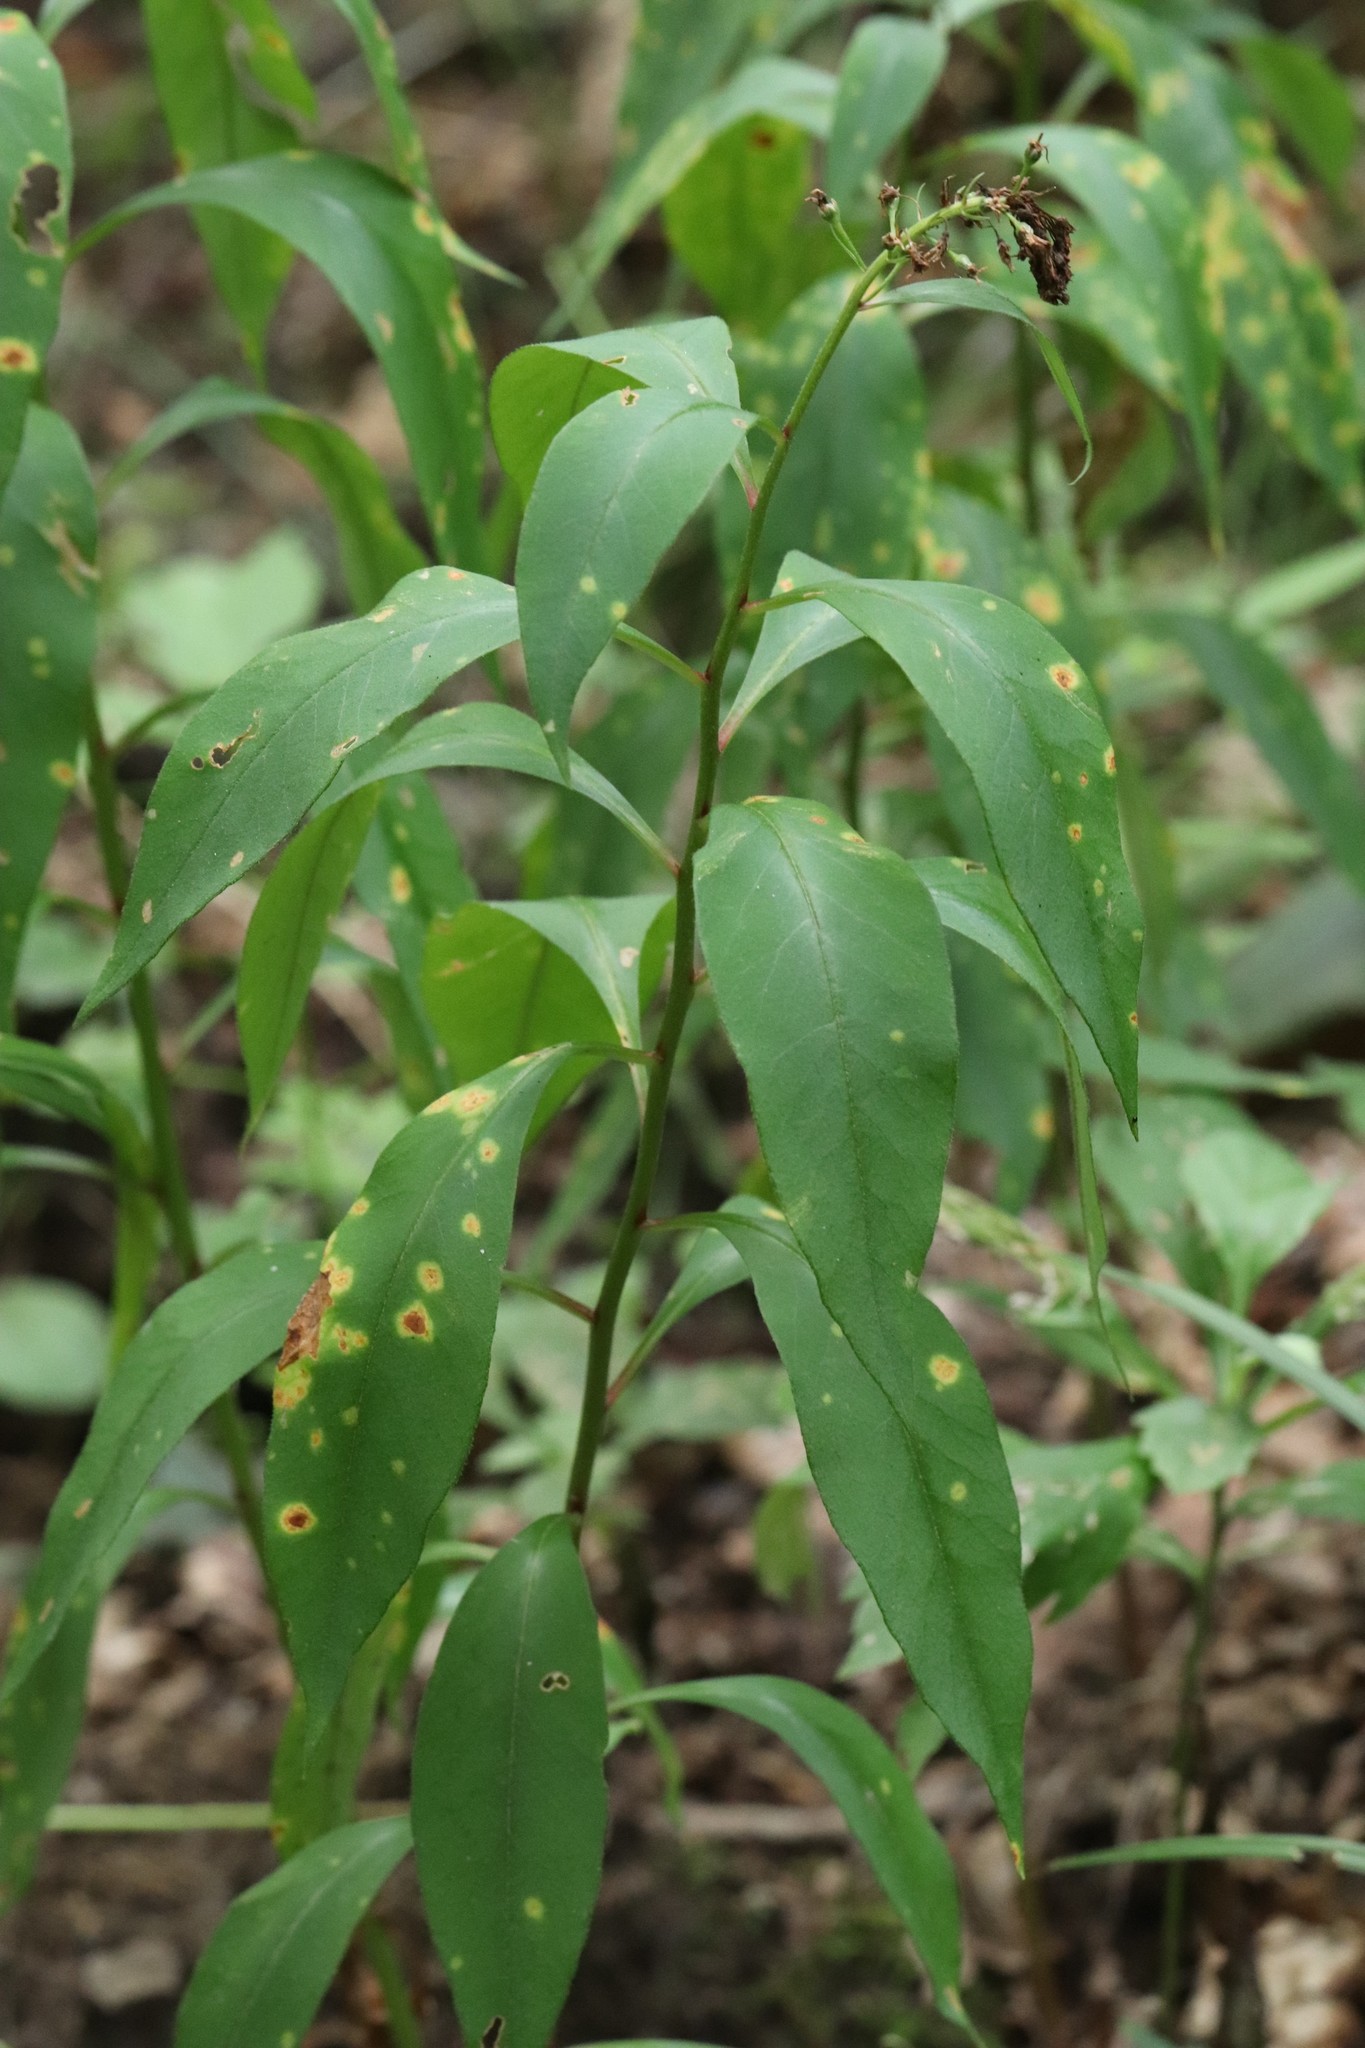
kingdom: Plantae
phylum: Tracheophyta
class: Magnoliopsida
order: Ericales
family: Primulaceae
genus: Lysimachia
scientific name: Lysimachia clethroides
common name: Gooseneck loosestrife
